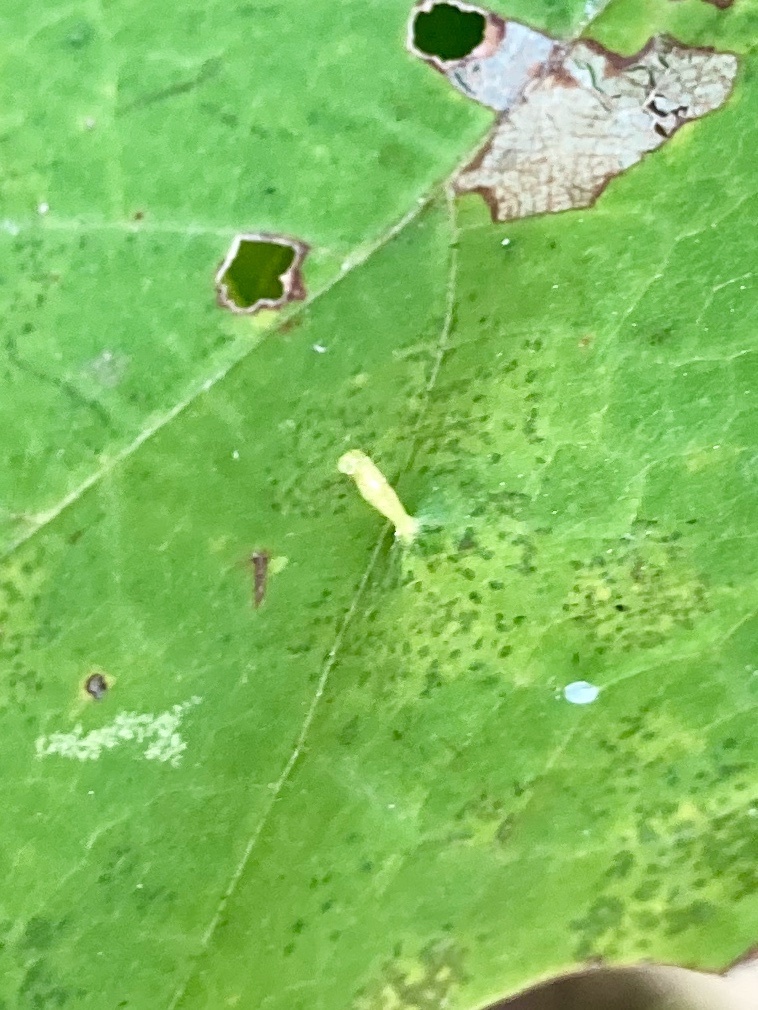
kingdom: Animalia
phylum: Arthropoda
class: Arachnida
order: Trombidiformes
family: Eriophyidae
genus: Vasates
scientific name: Vasates aceriscrumena
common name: Maple spindle gall mite
